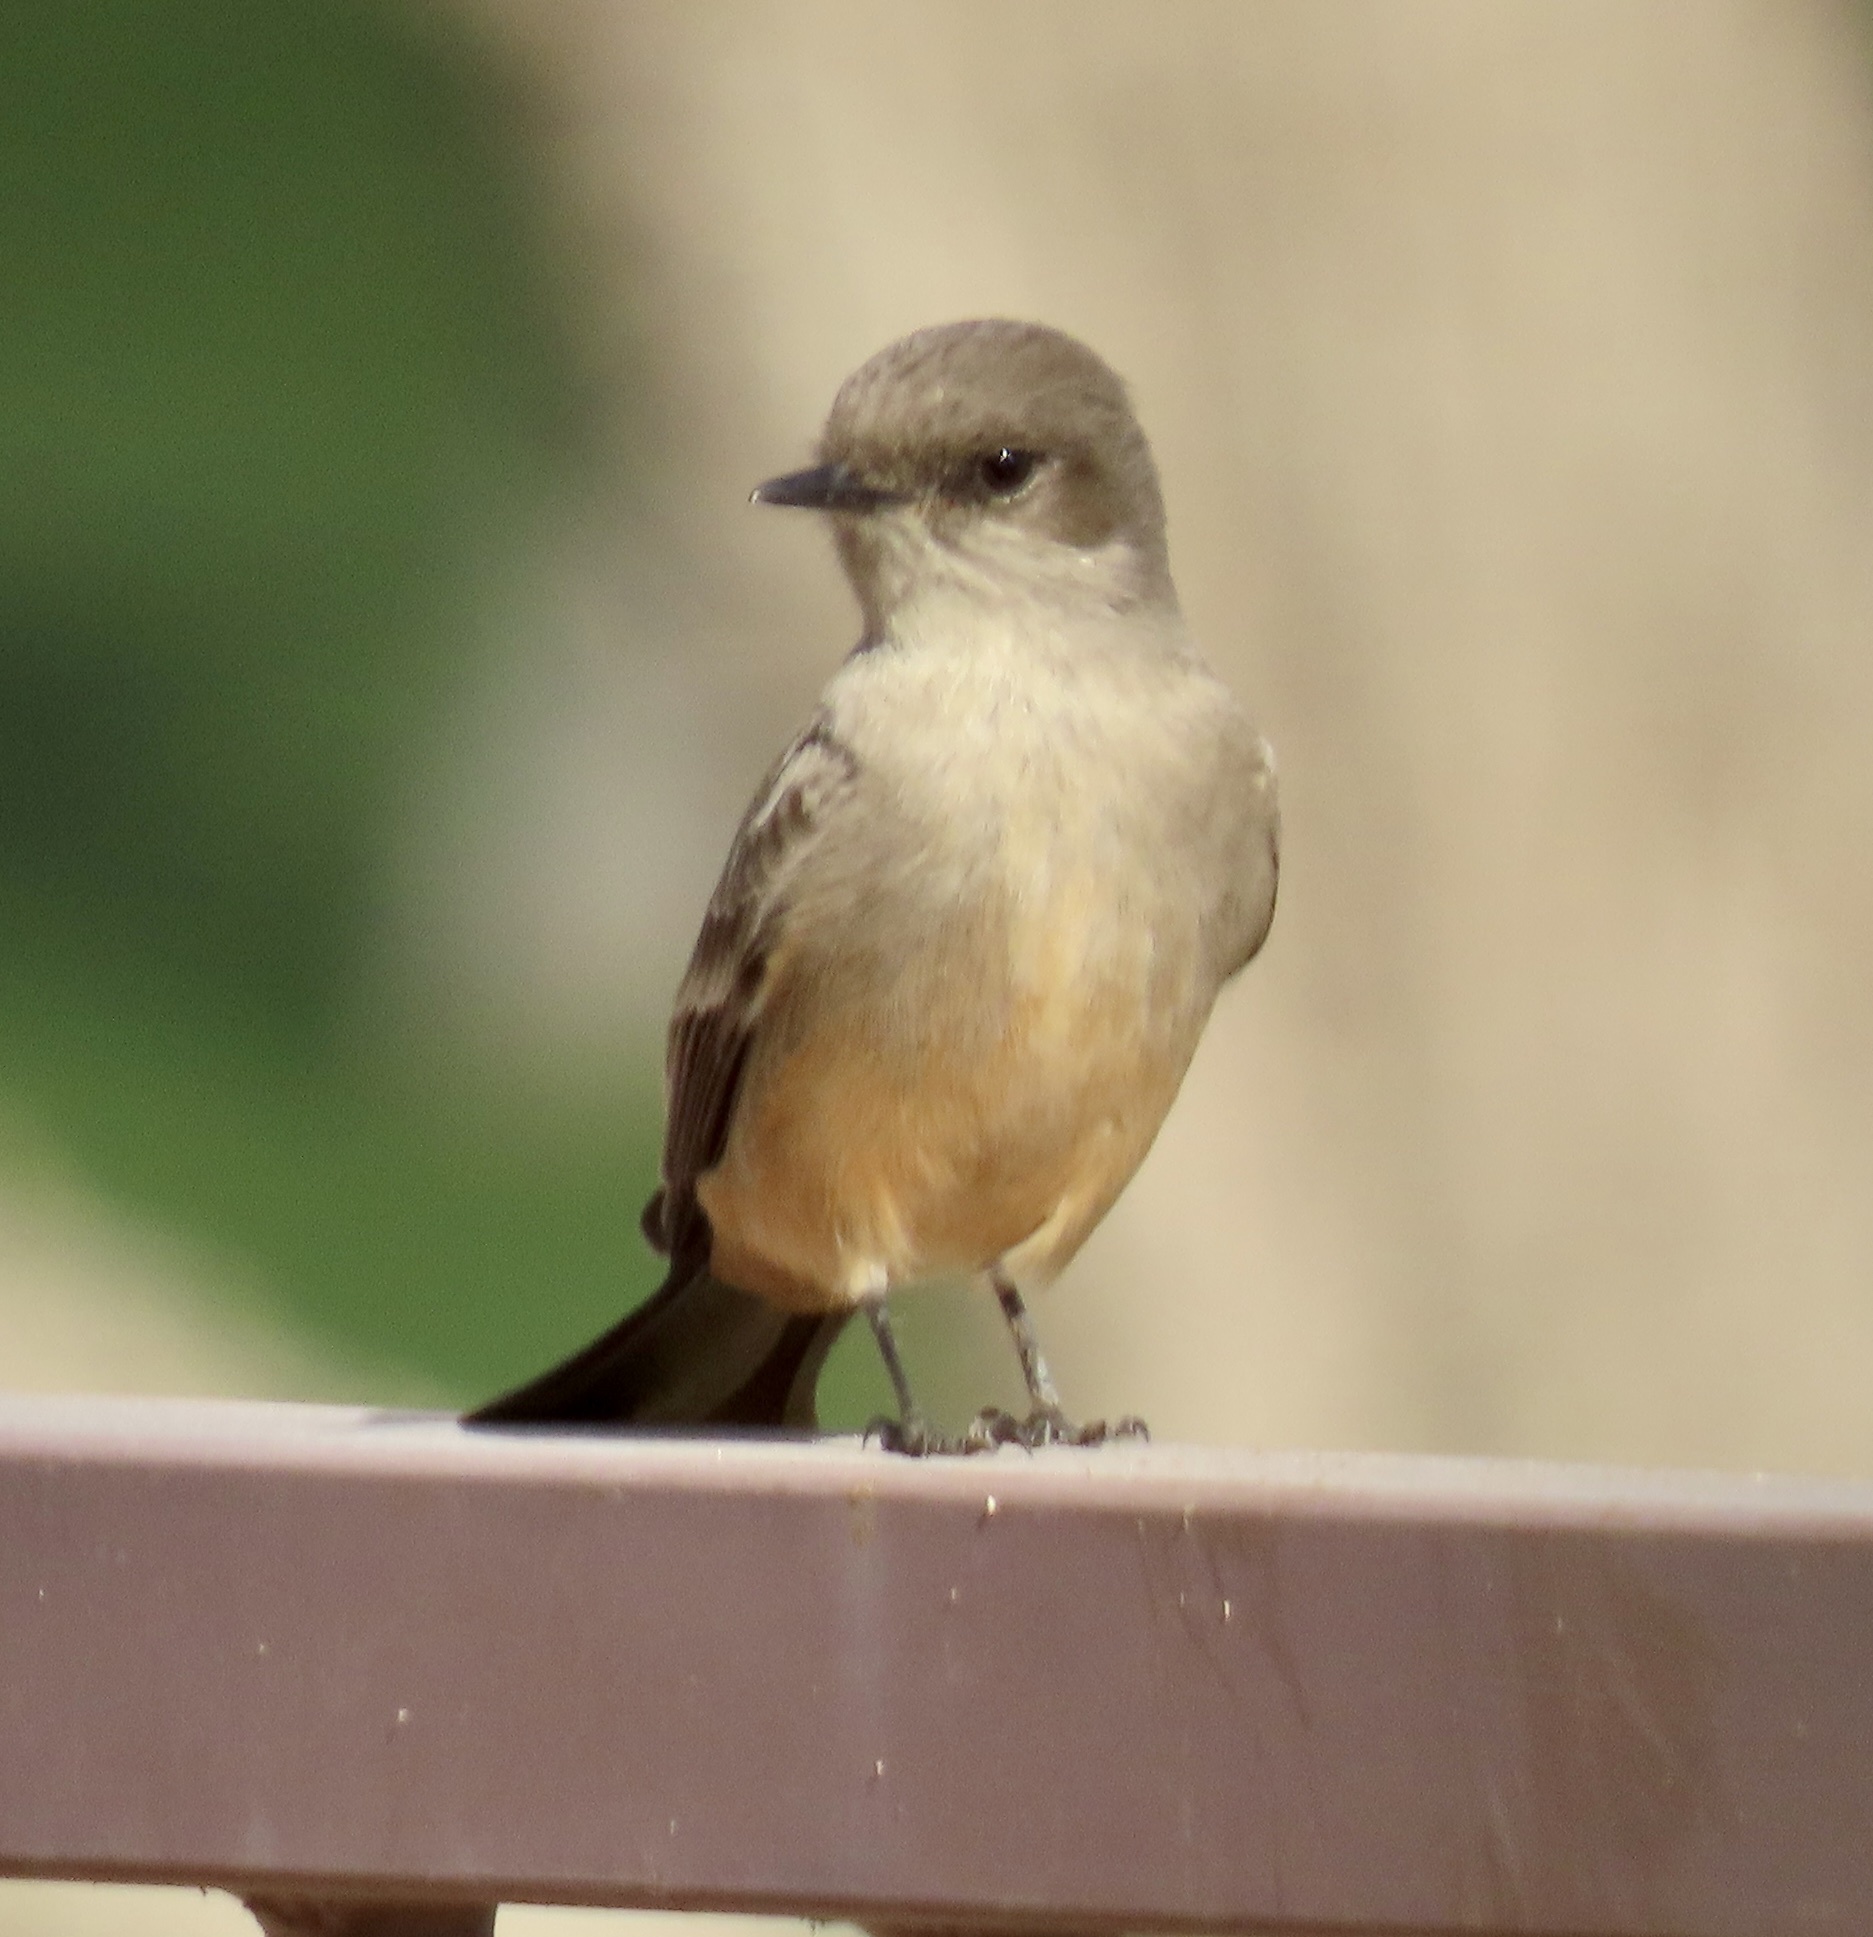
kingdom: Animalia
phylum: Chordata
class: Aves
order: Passeriformes
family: Tyrannidae
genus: Sayornis
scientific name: Sayornis saya
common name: Say's phoebe
